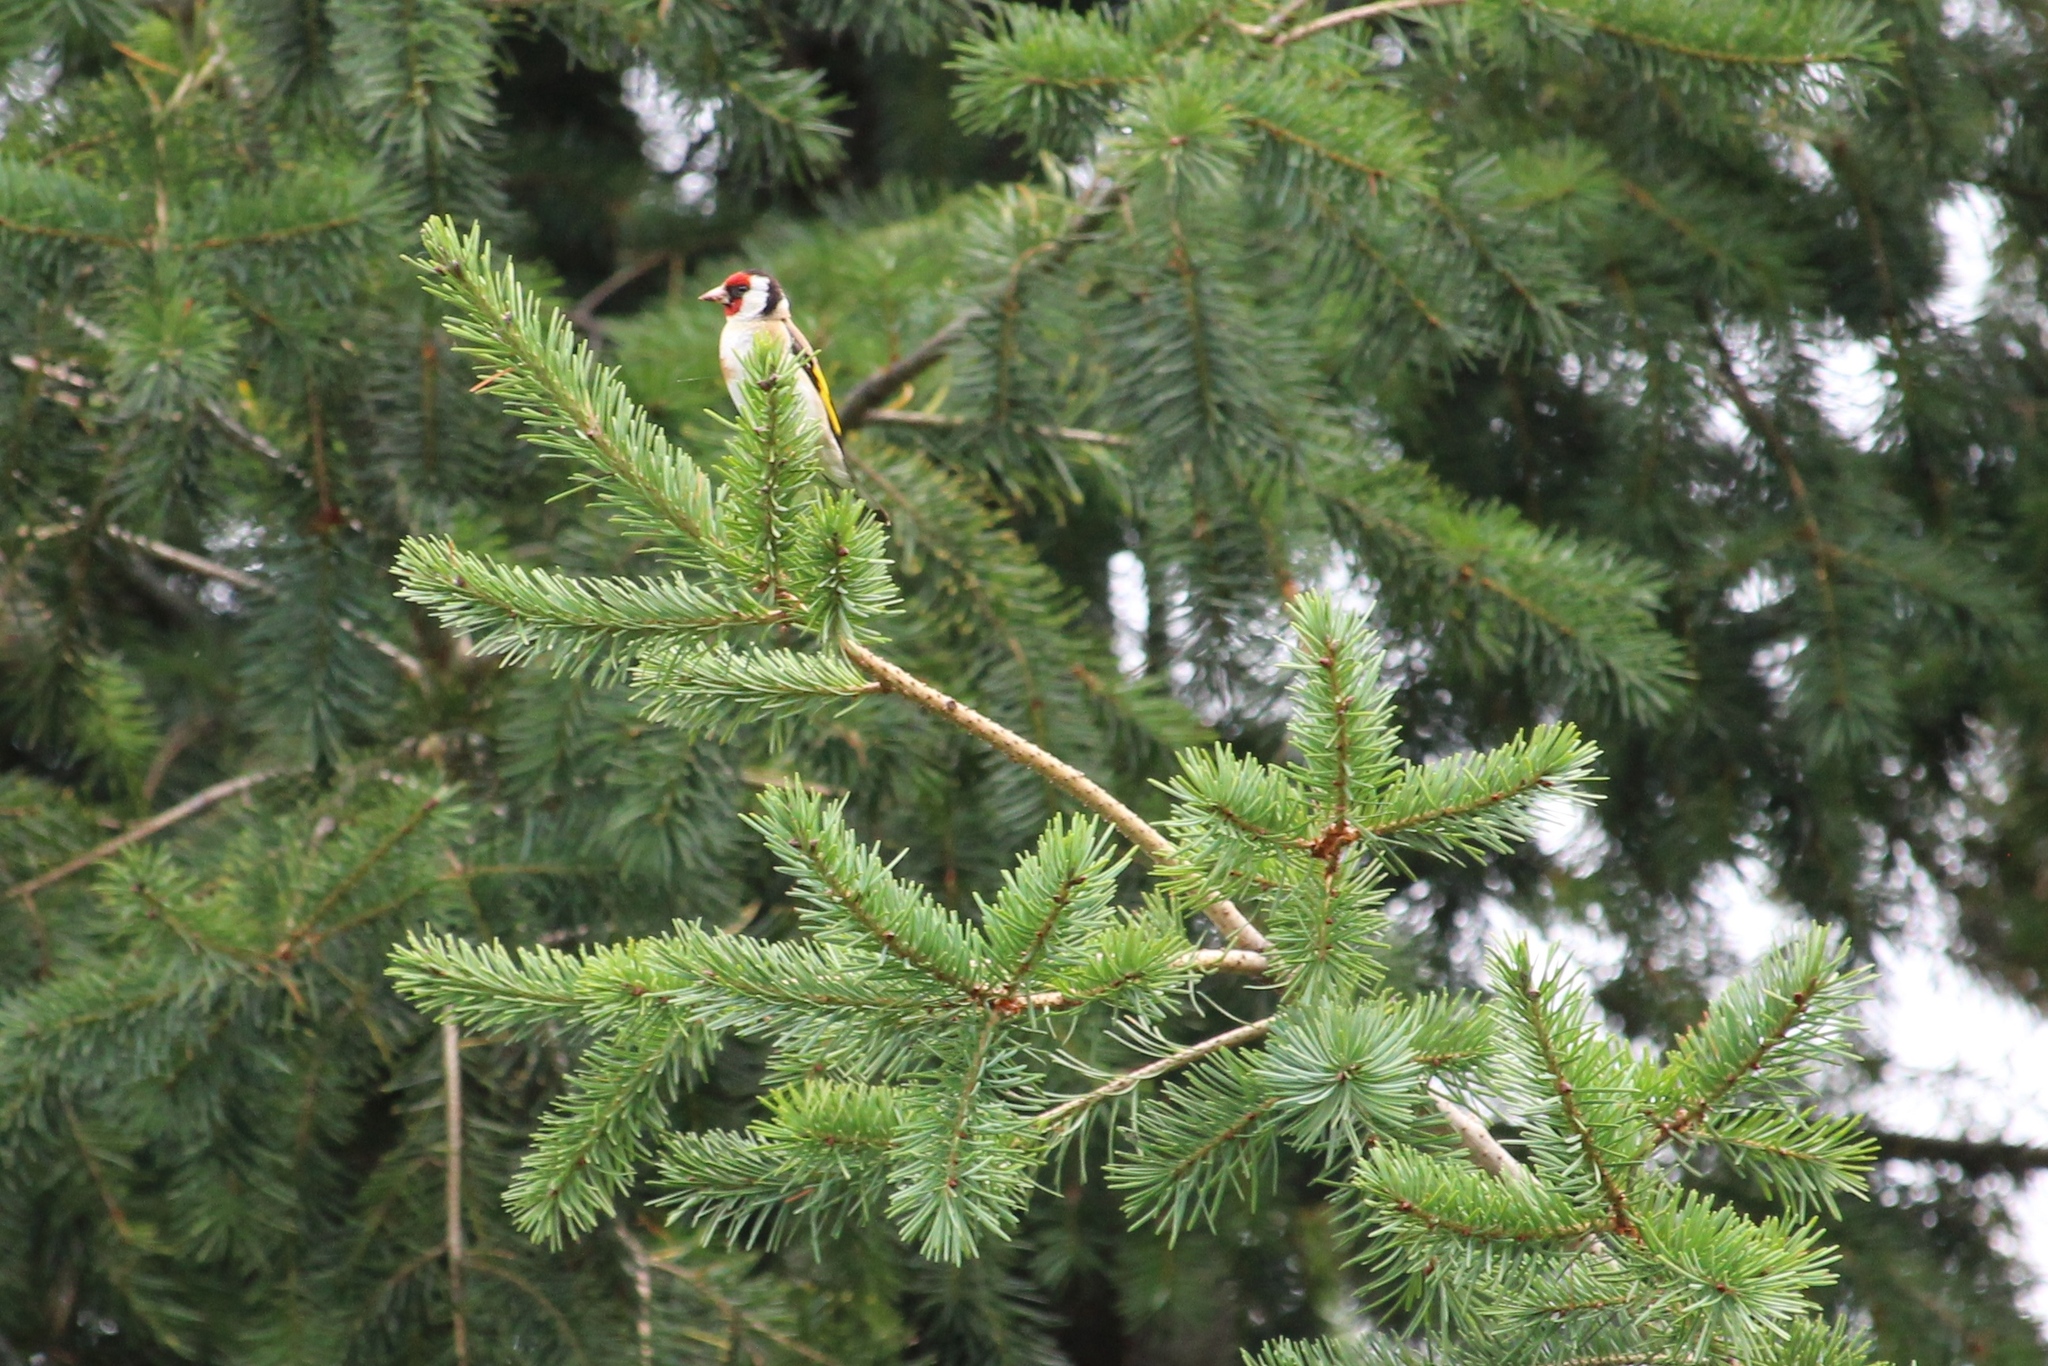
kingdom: Animalia
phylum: Chordata
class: Aves
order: Passeriformes
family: Fringillidae
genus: Carduelis
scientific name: Carduelis carduelis
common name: European goldfinch
